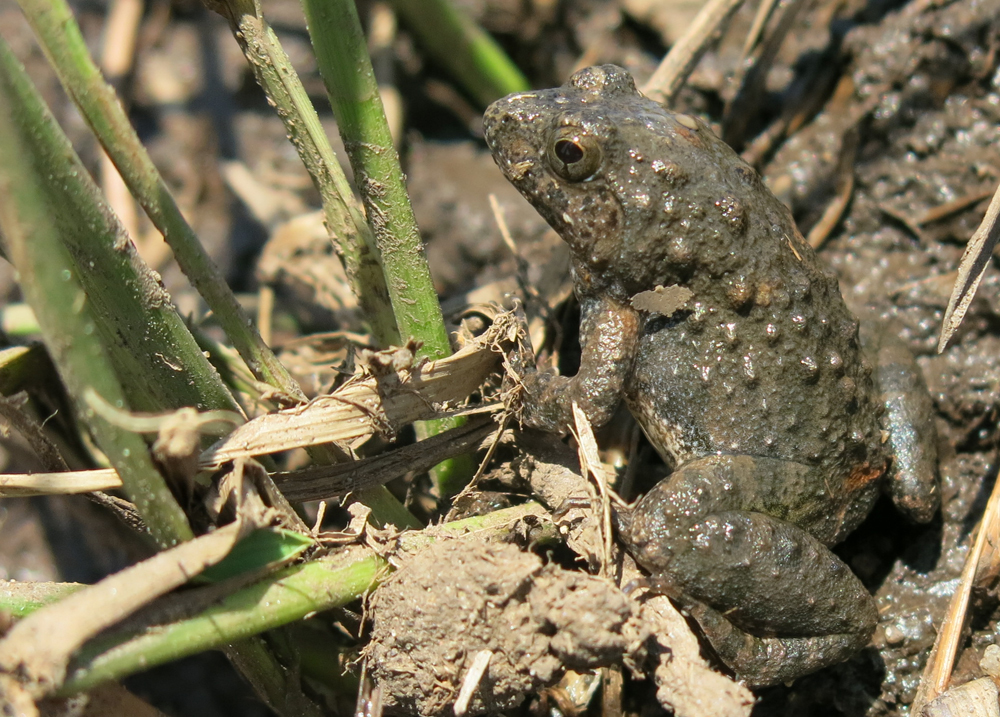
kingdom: Animalia
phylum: Chordata
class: Amphibia
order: Anura
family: Phrynobatrachidae
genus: Phrynobatrachus
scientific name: Phrynobatrachus natalensis
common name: Snoring puddle frog
